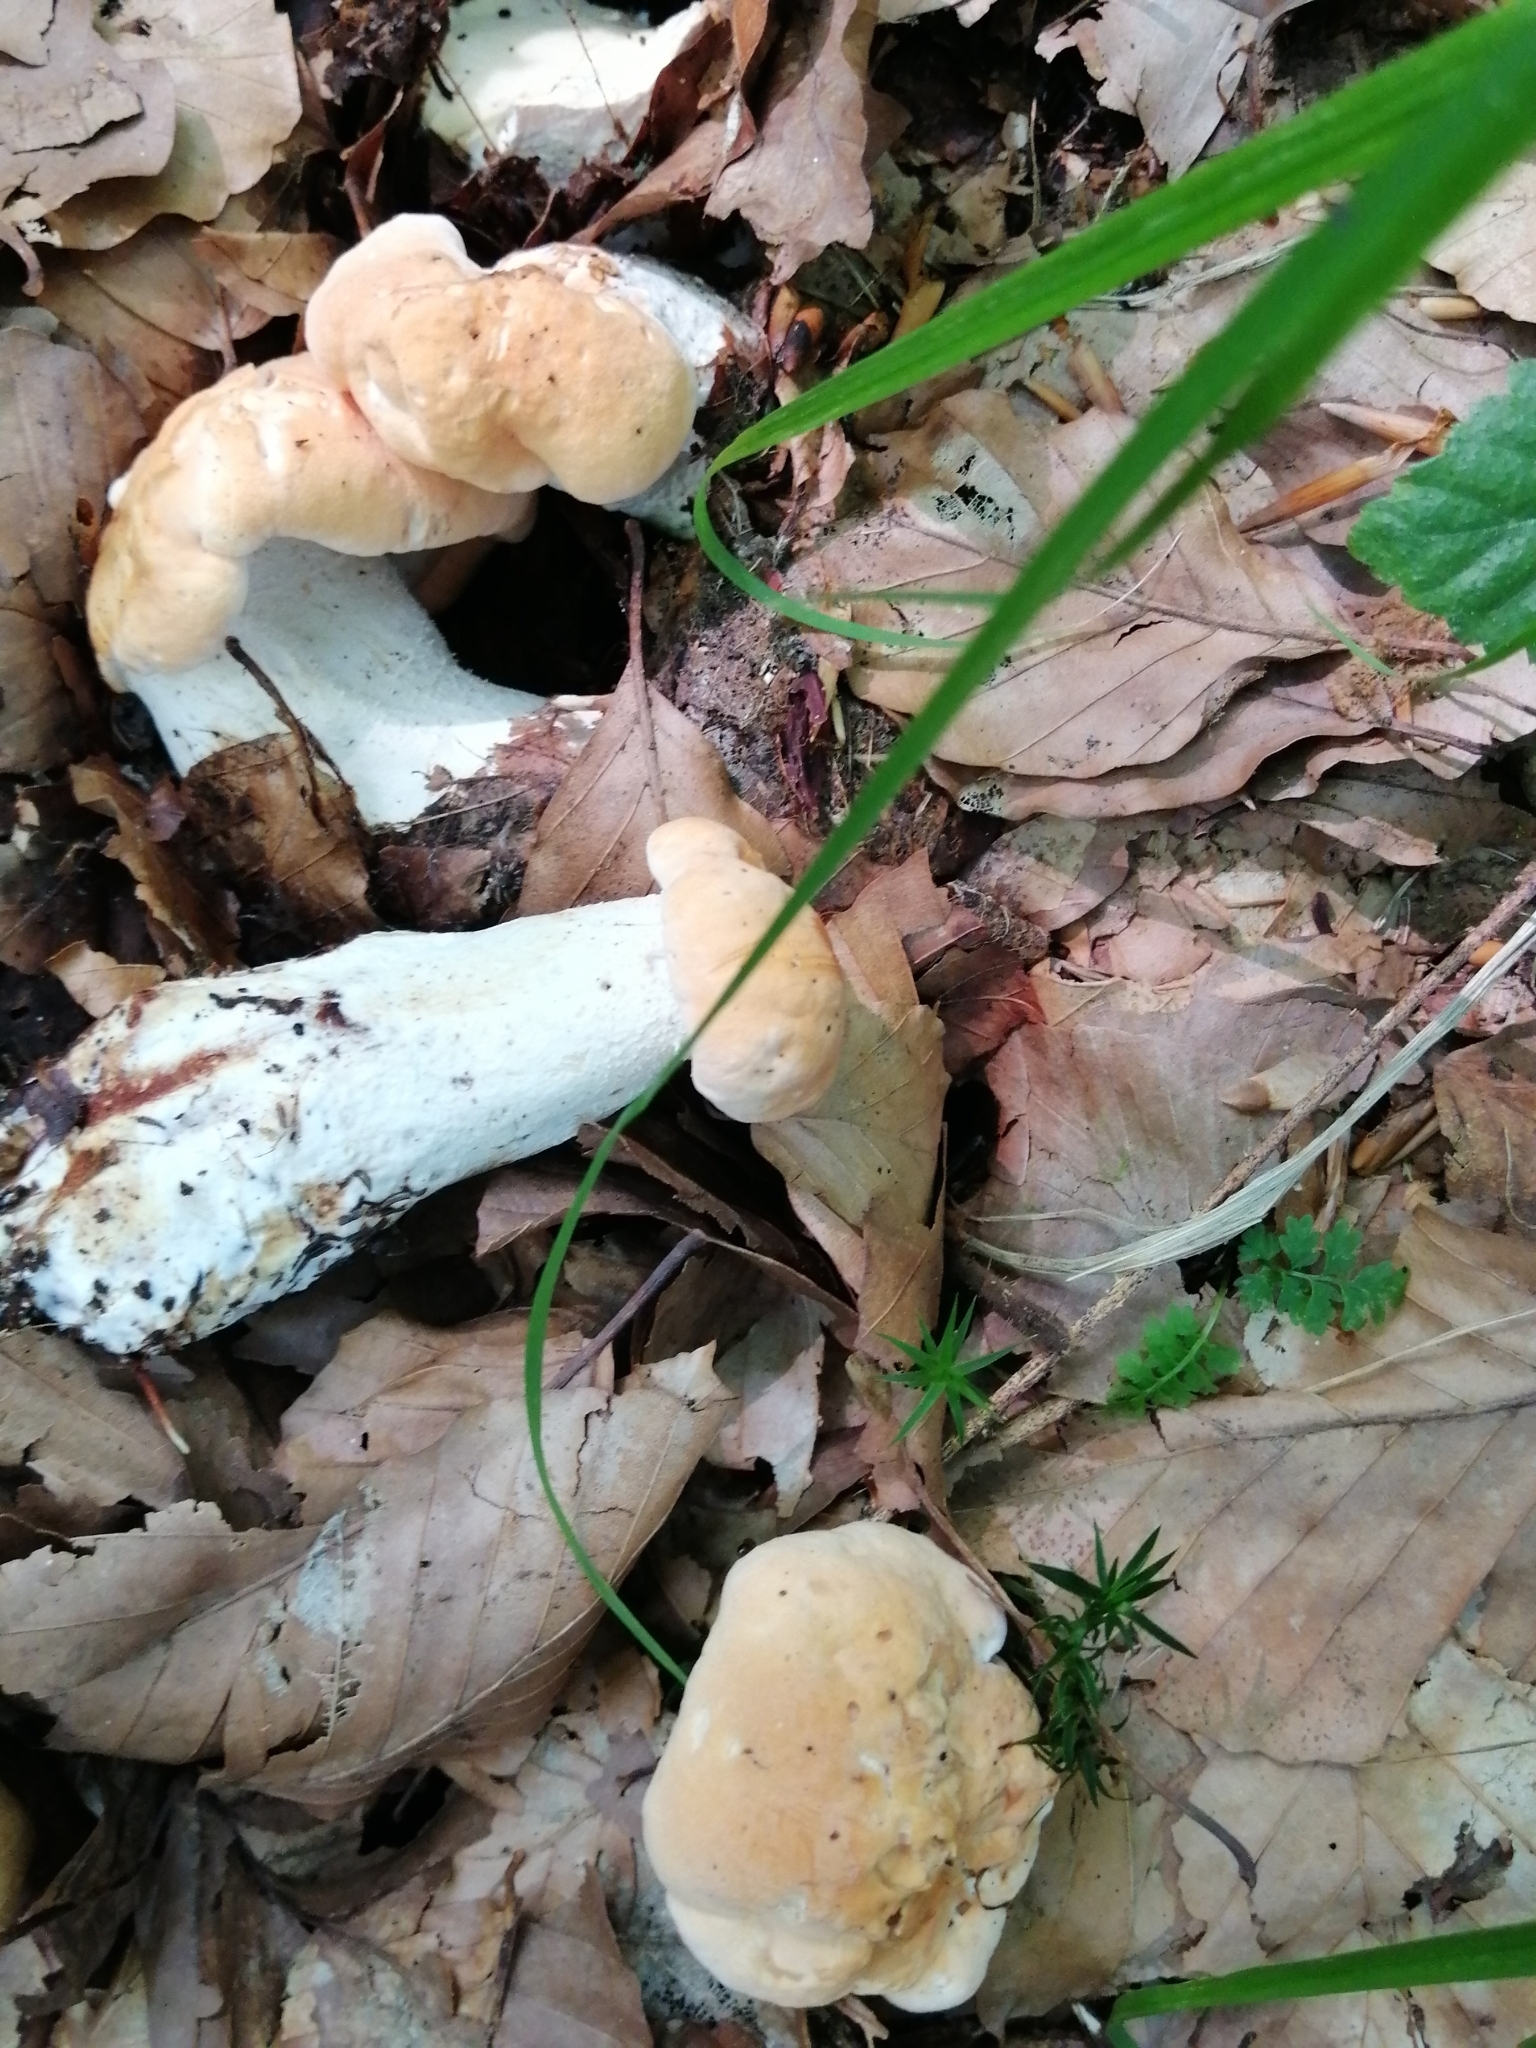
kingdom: Fungi
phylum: Basidiomycota
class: Agaricomycetes
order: Cantharellales
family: Hydnaceae
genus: Hydnum
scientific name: Hydnum repandum
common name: Wood hedgehog
